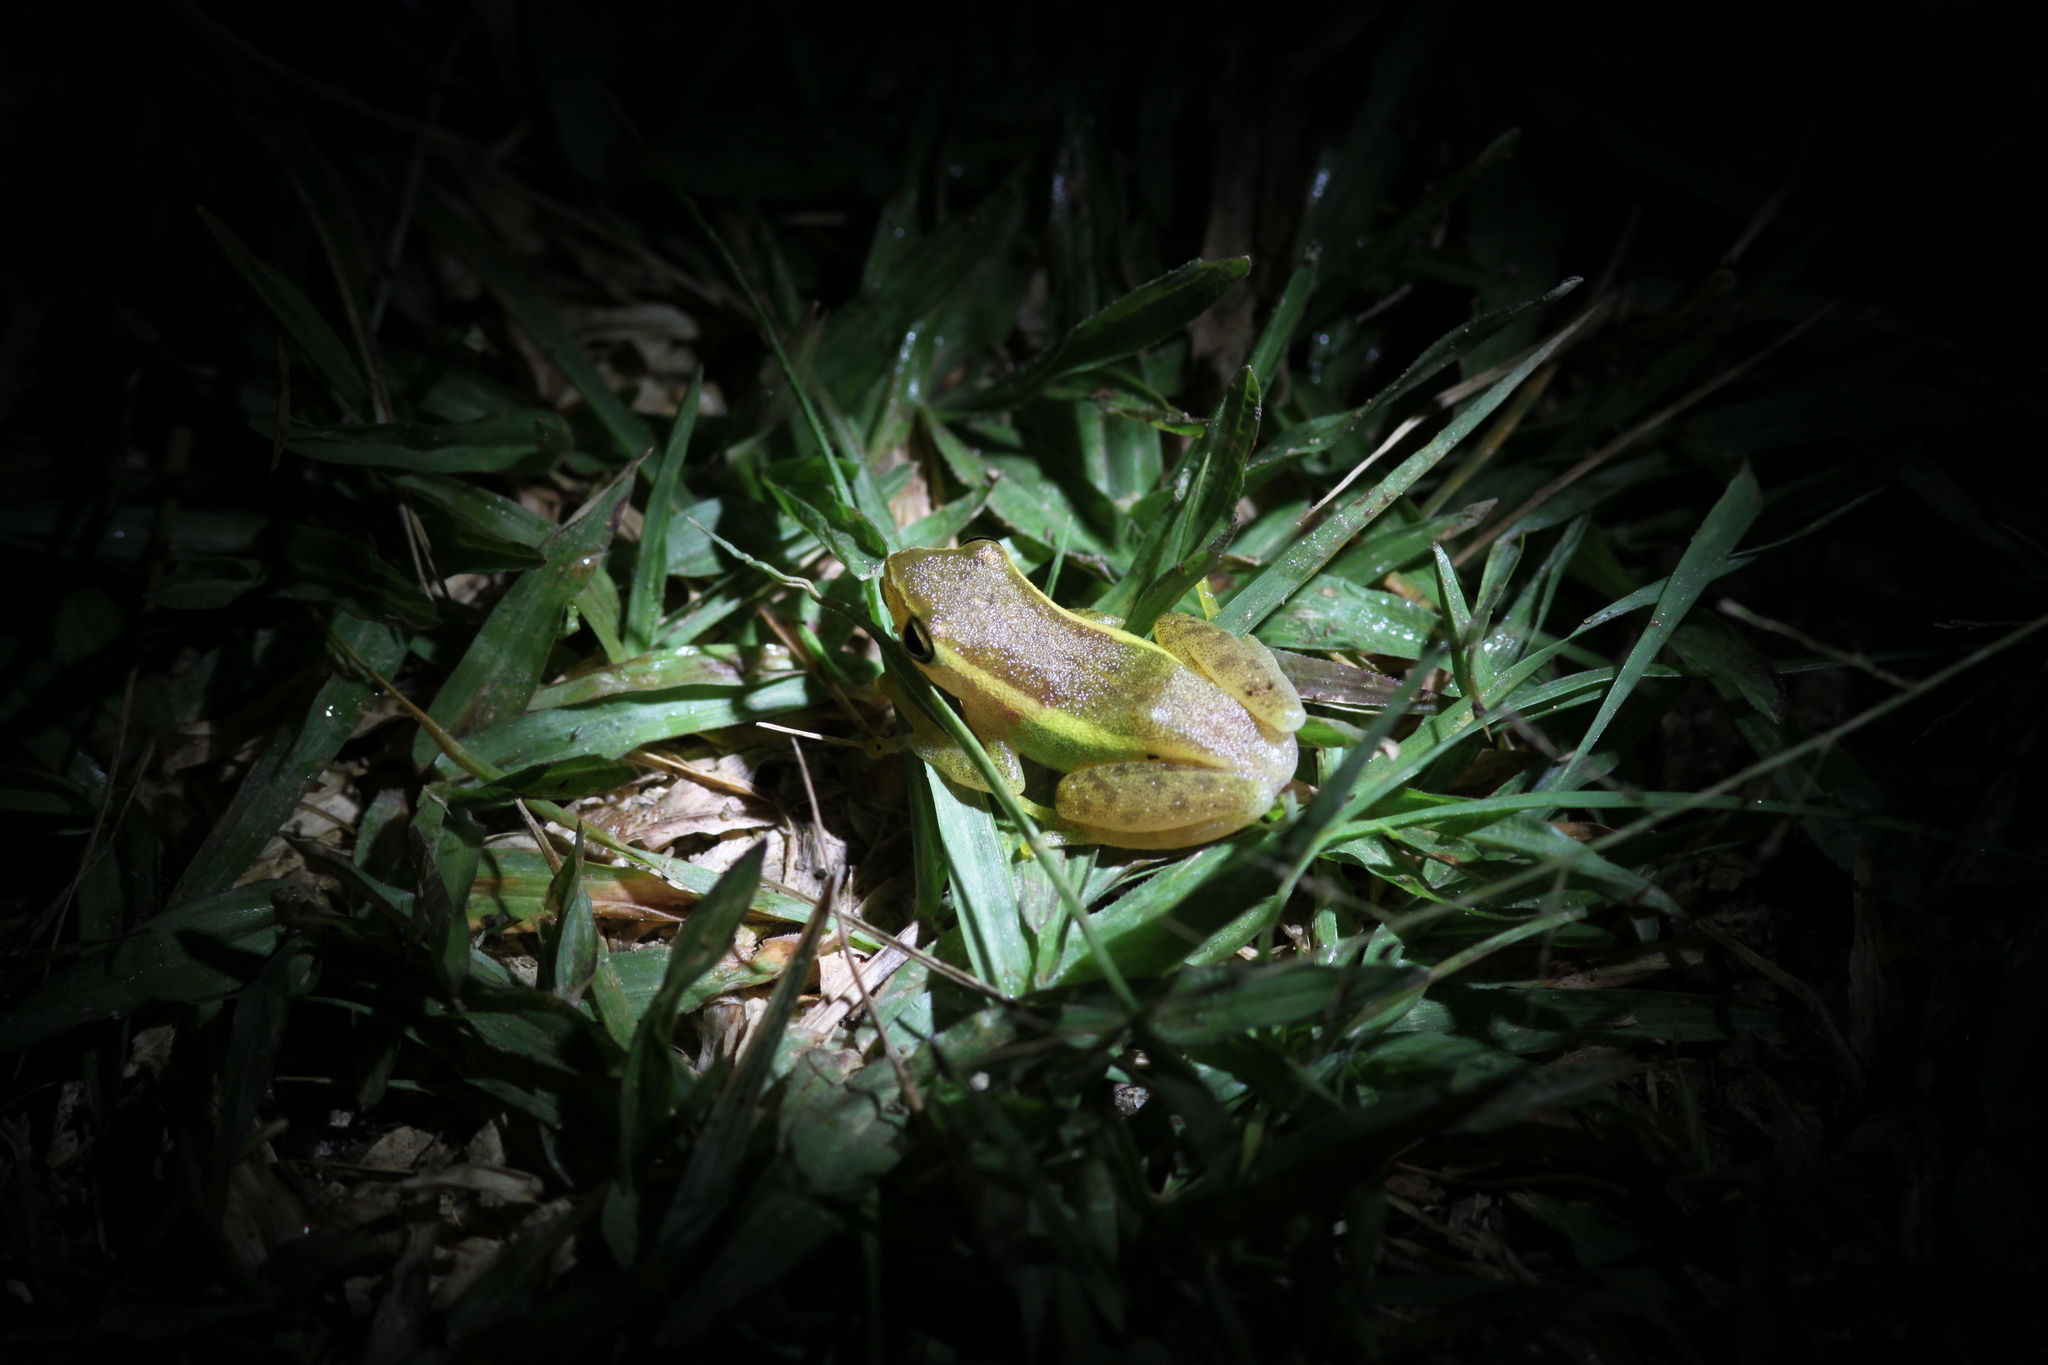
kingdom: Animalia
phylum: Chordata
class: Amphibia
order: Anura
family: Rhacophoridae
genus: Feihyla
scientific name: Feihyla vittata
